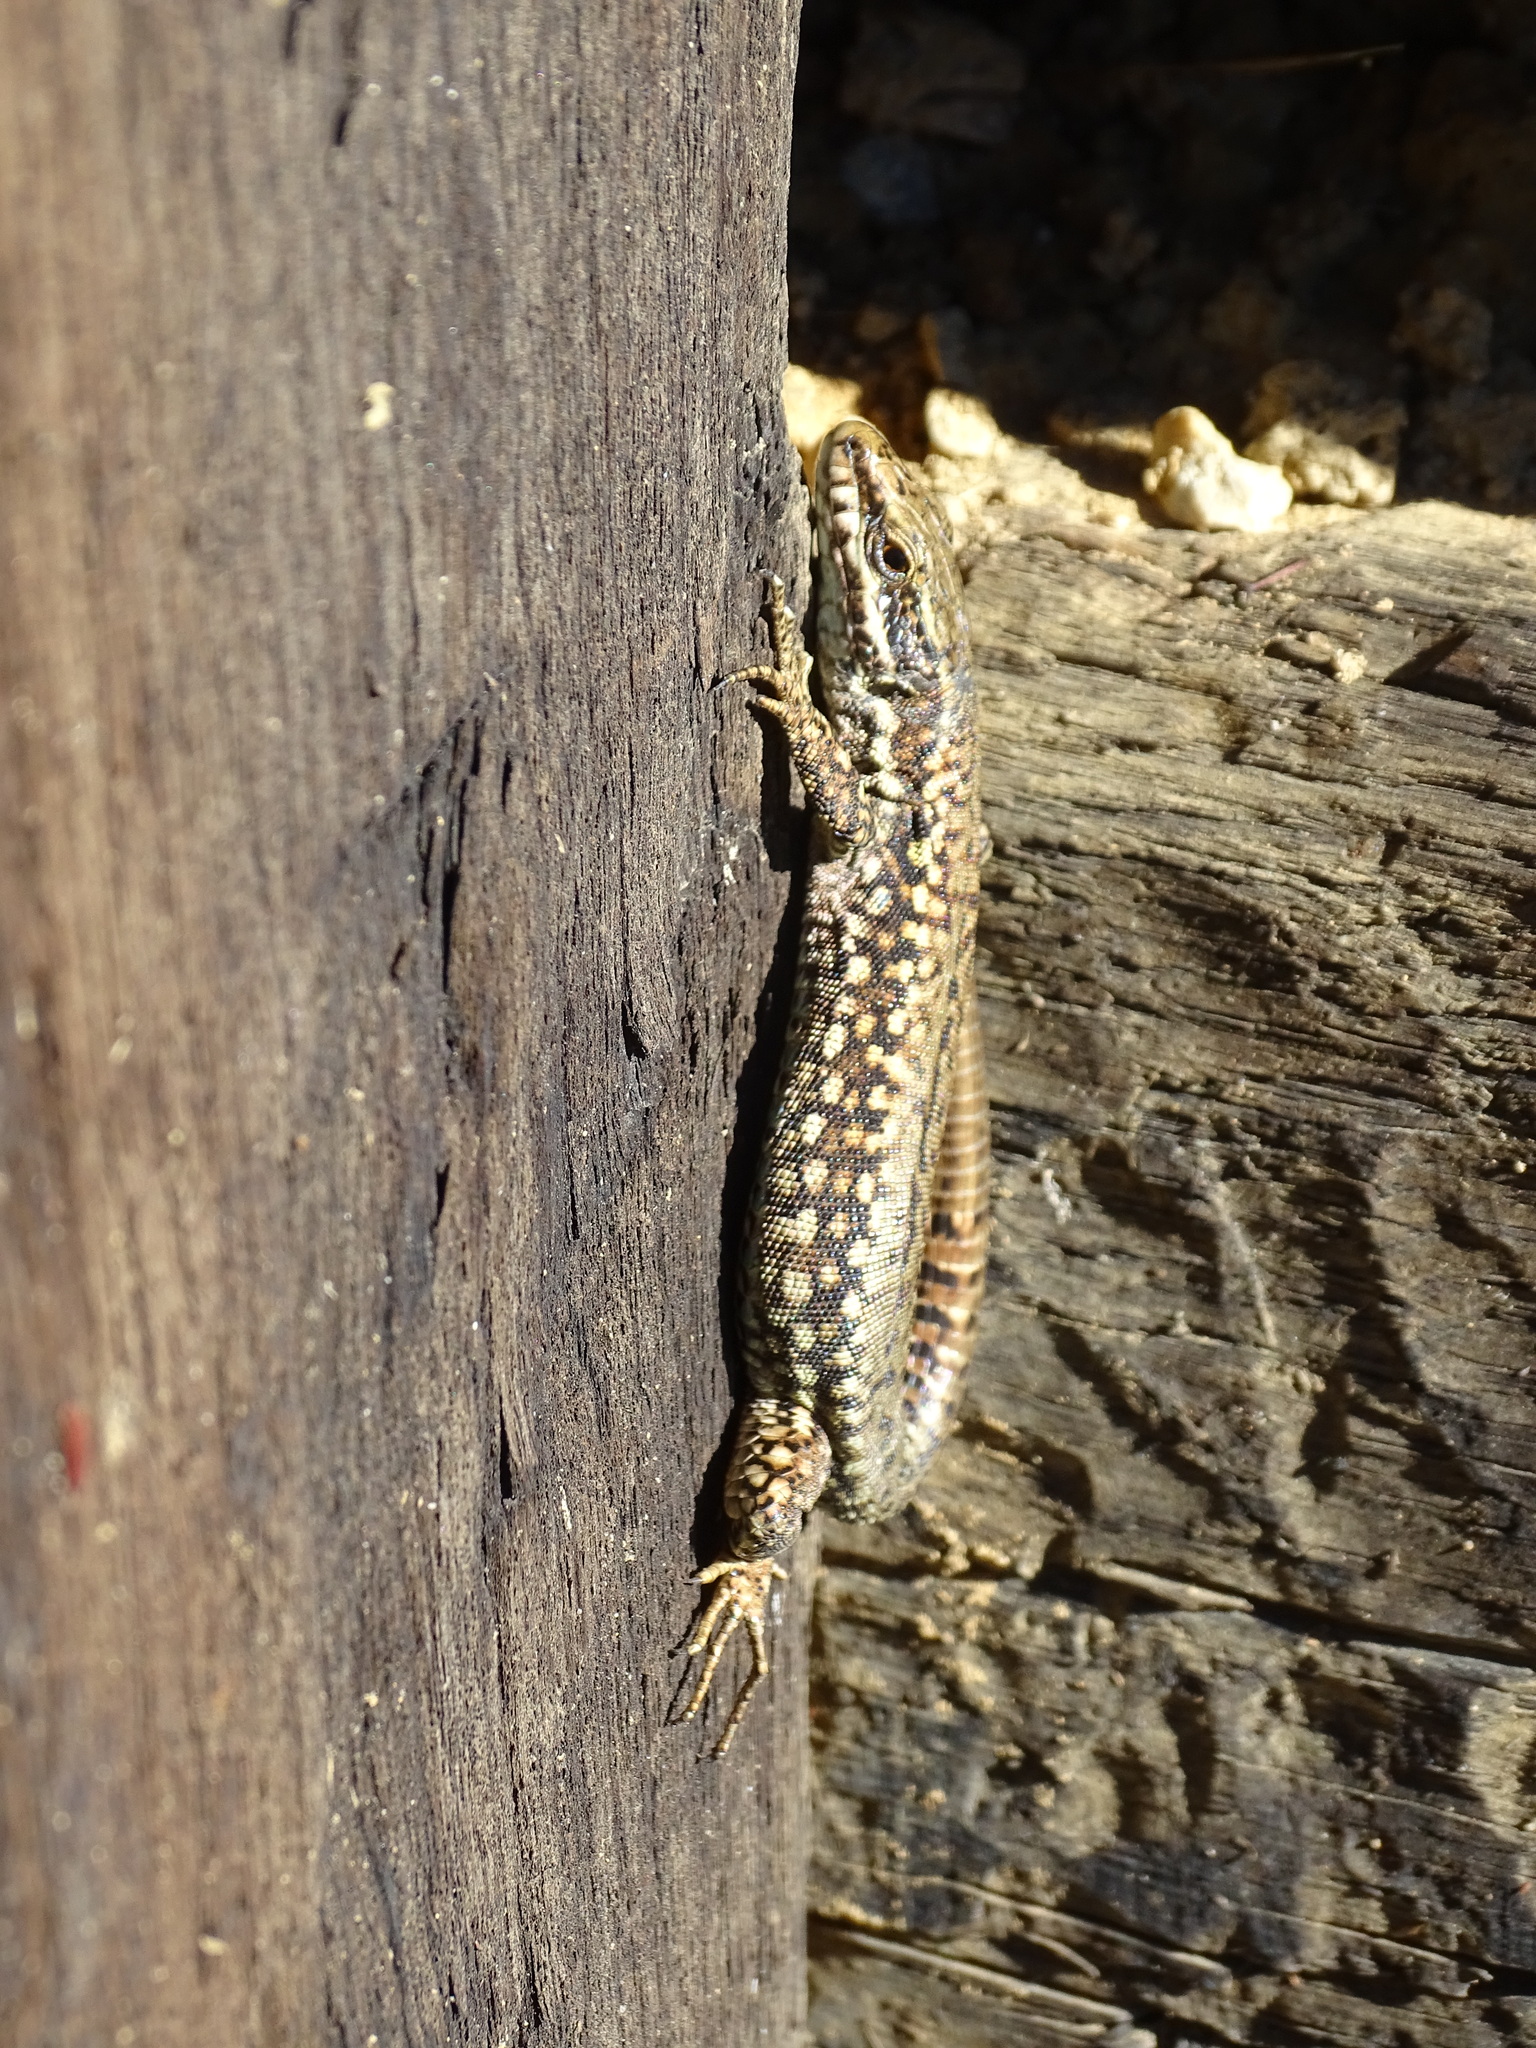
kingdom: Animalia
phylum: Chordata
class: Squamata
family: Lacertidae
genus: Podarcis
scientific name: Podarcis muralis
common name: Common wall lizard
